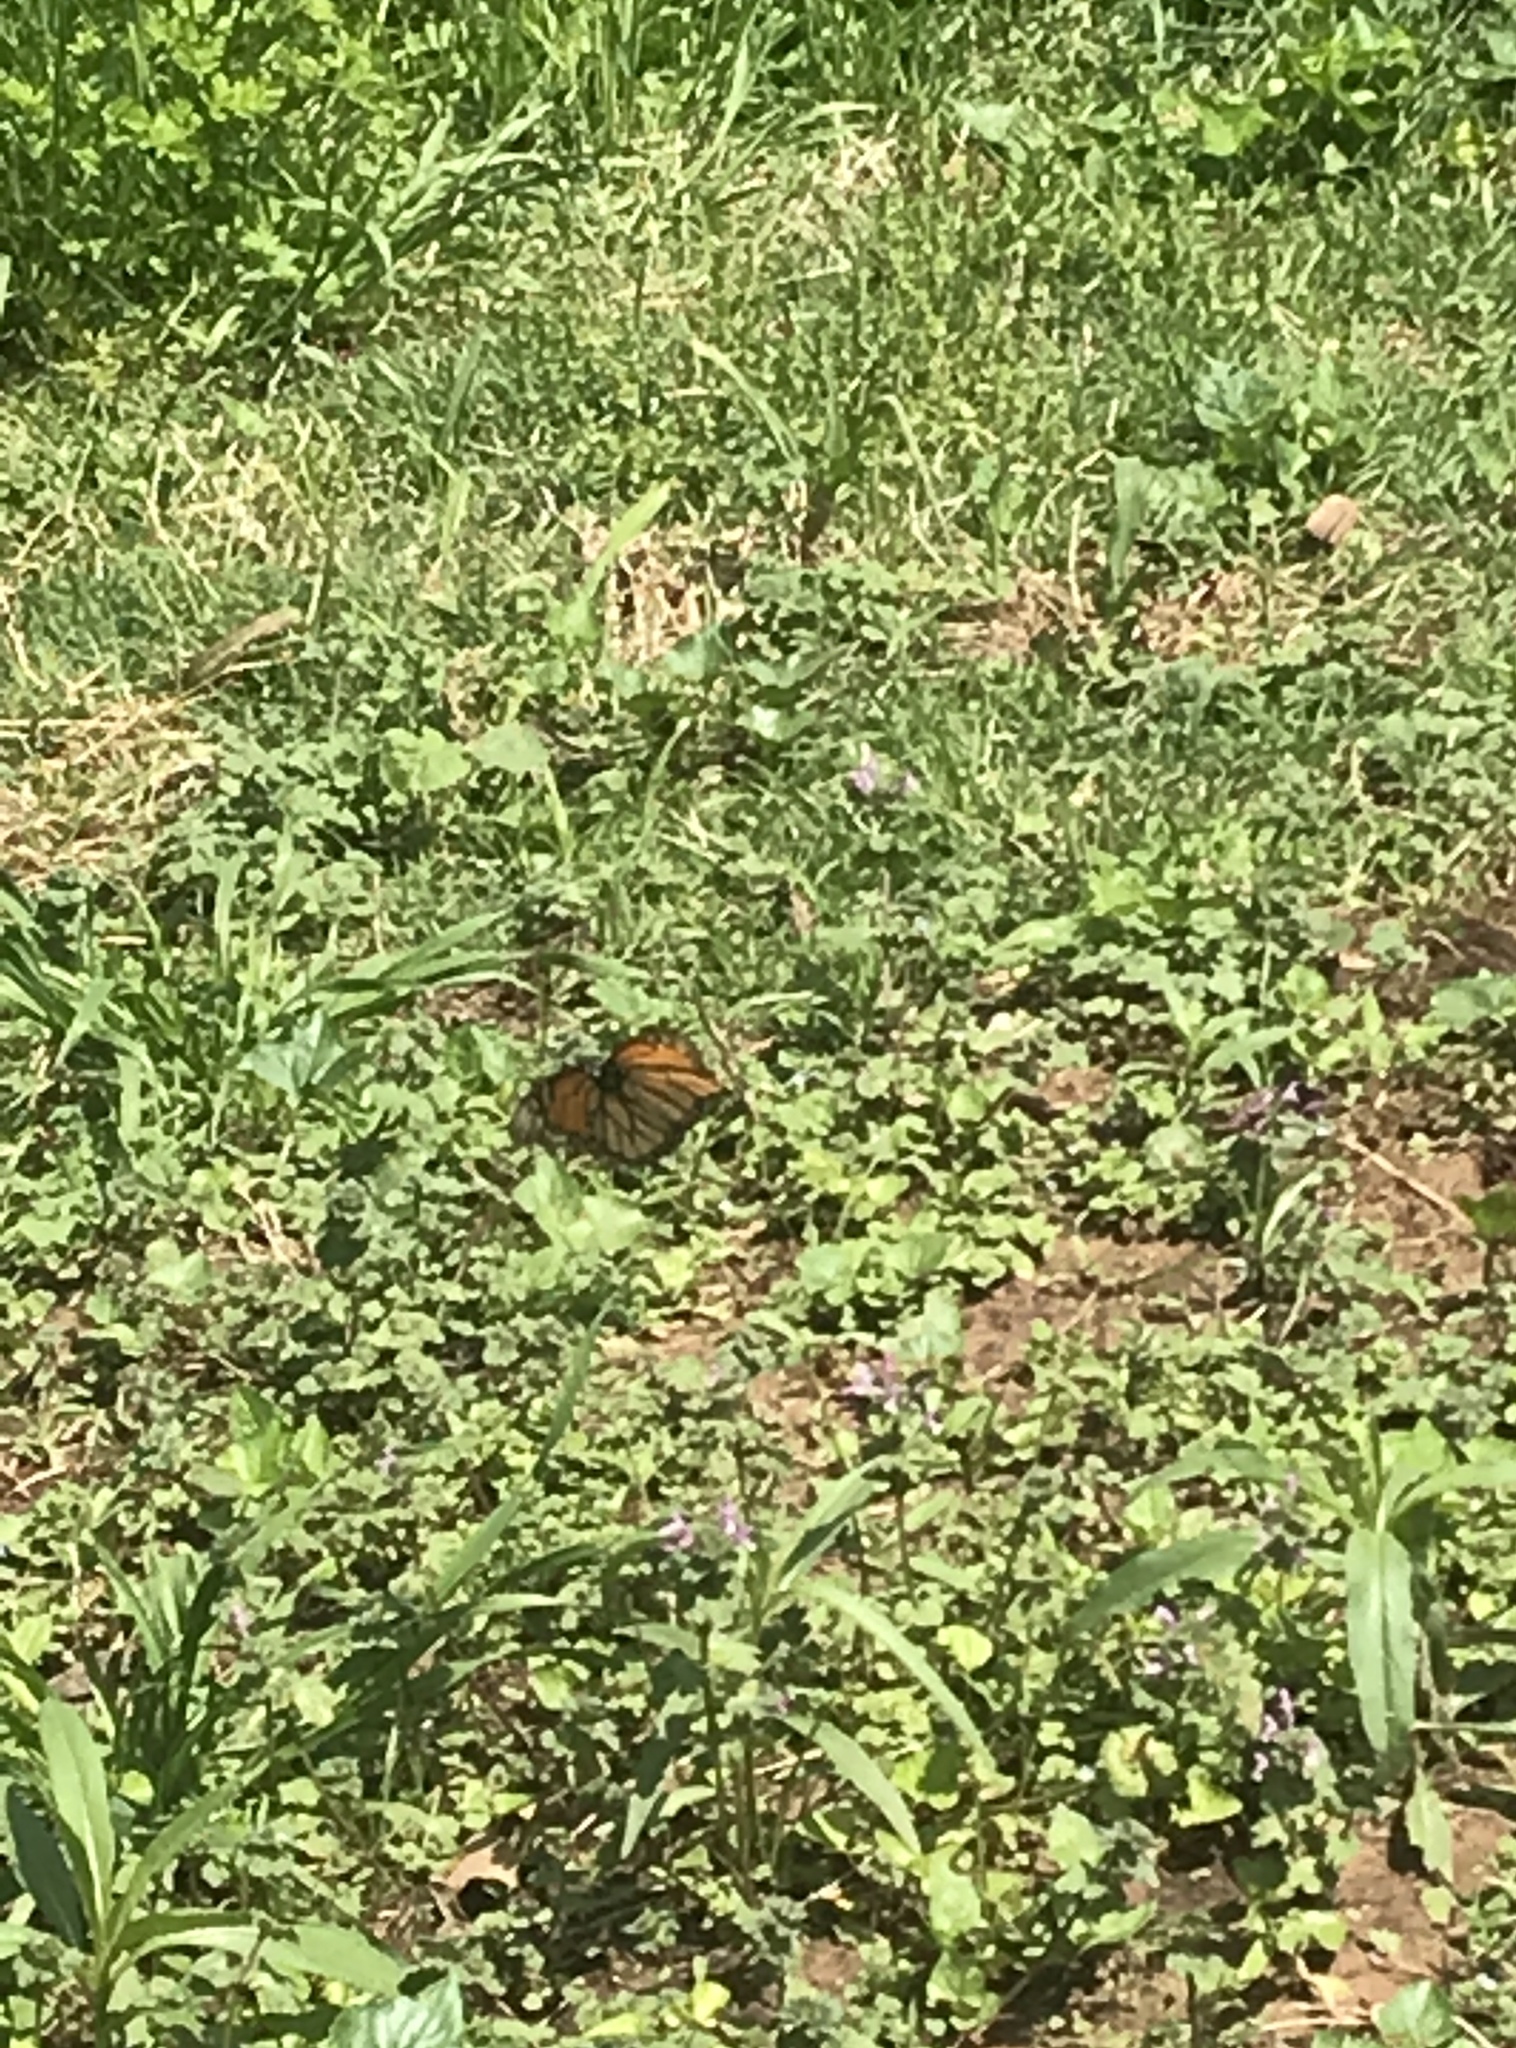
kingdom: Animalia
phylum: Arthropoda
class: Insecta
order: Lepidoptera
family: Nymphalidae
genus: Danaus
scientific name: Danaus plexippus
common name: Monarch
